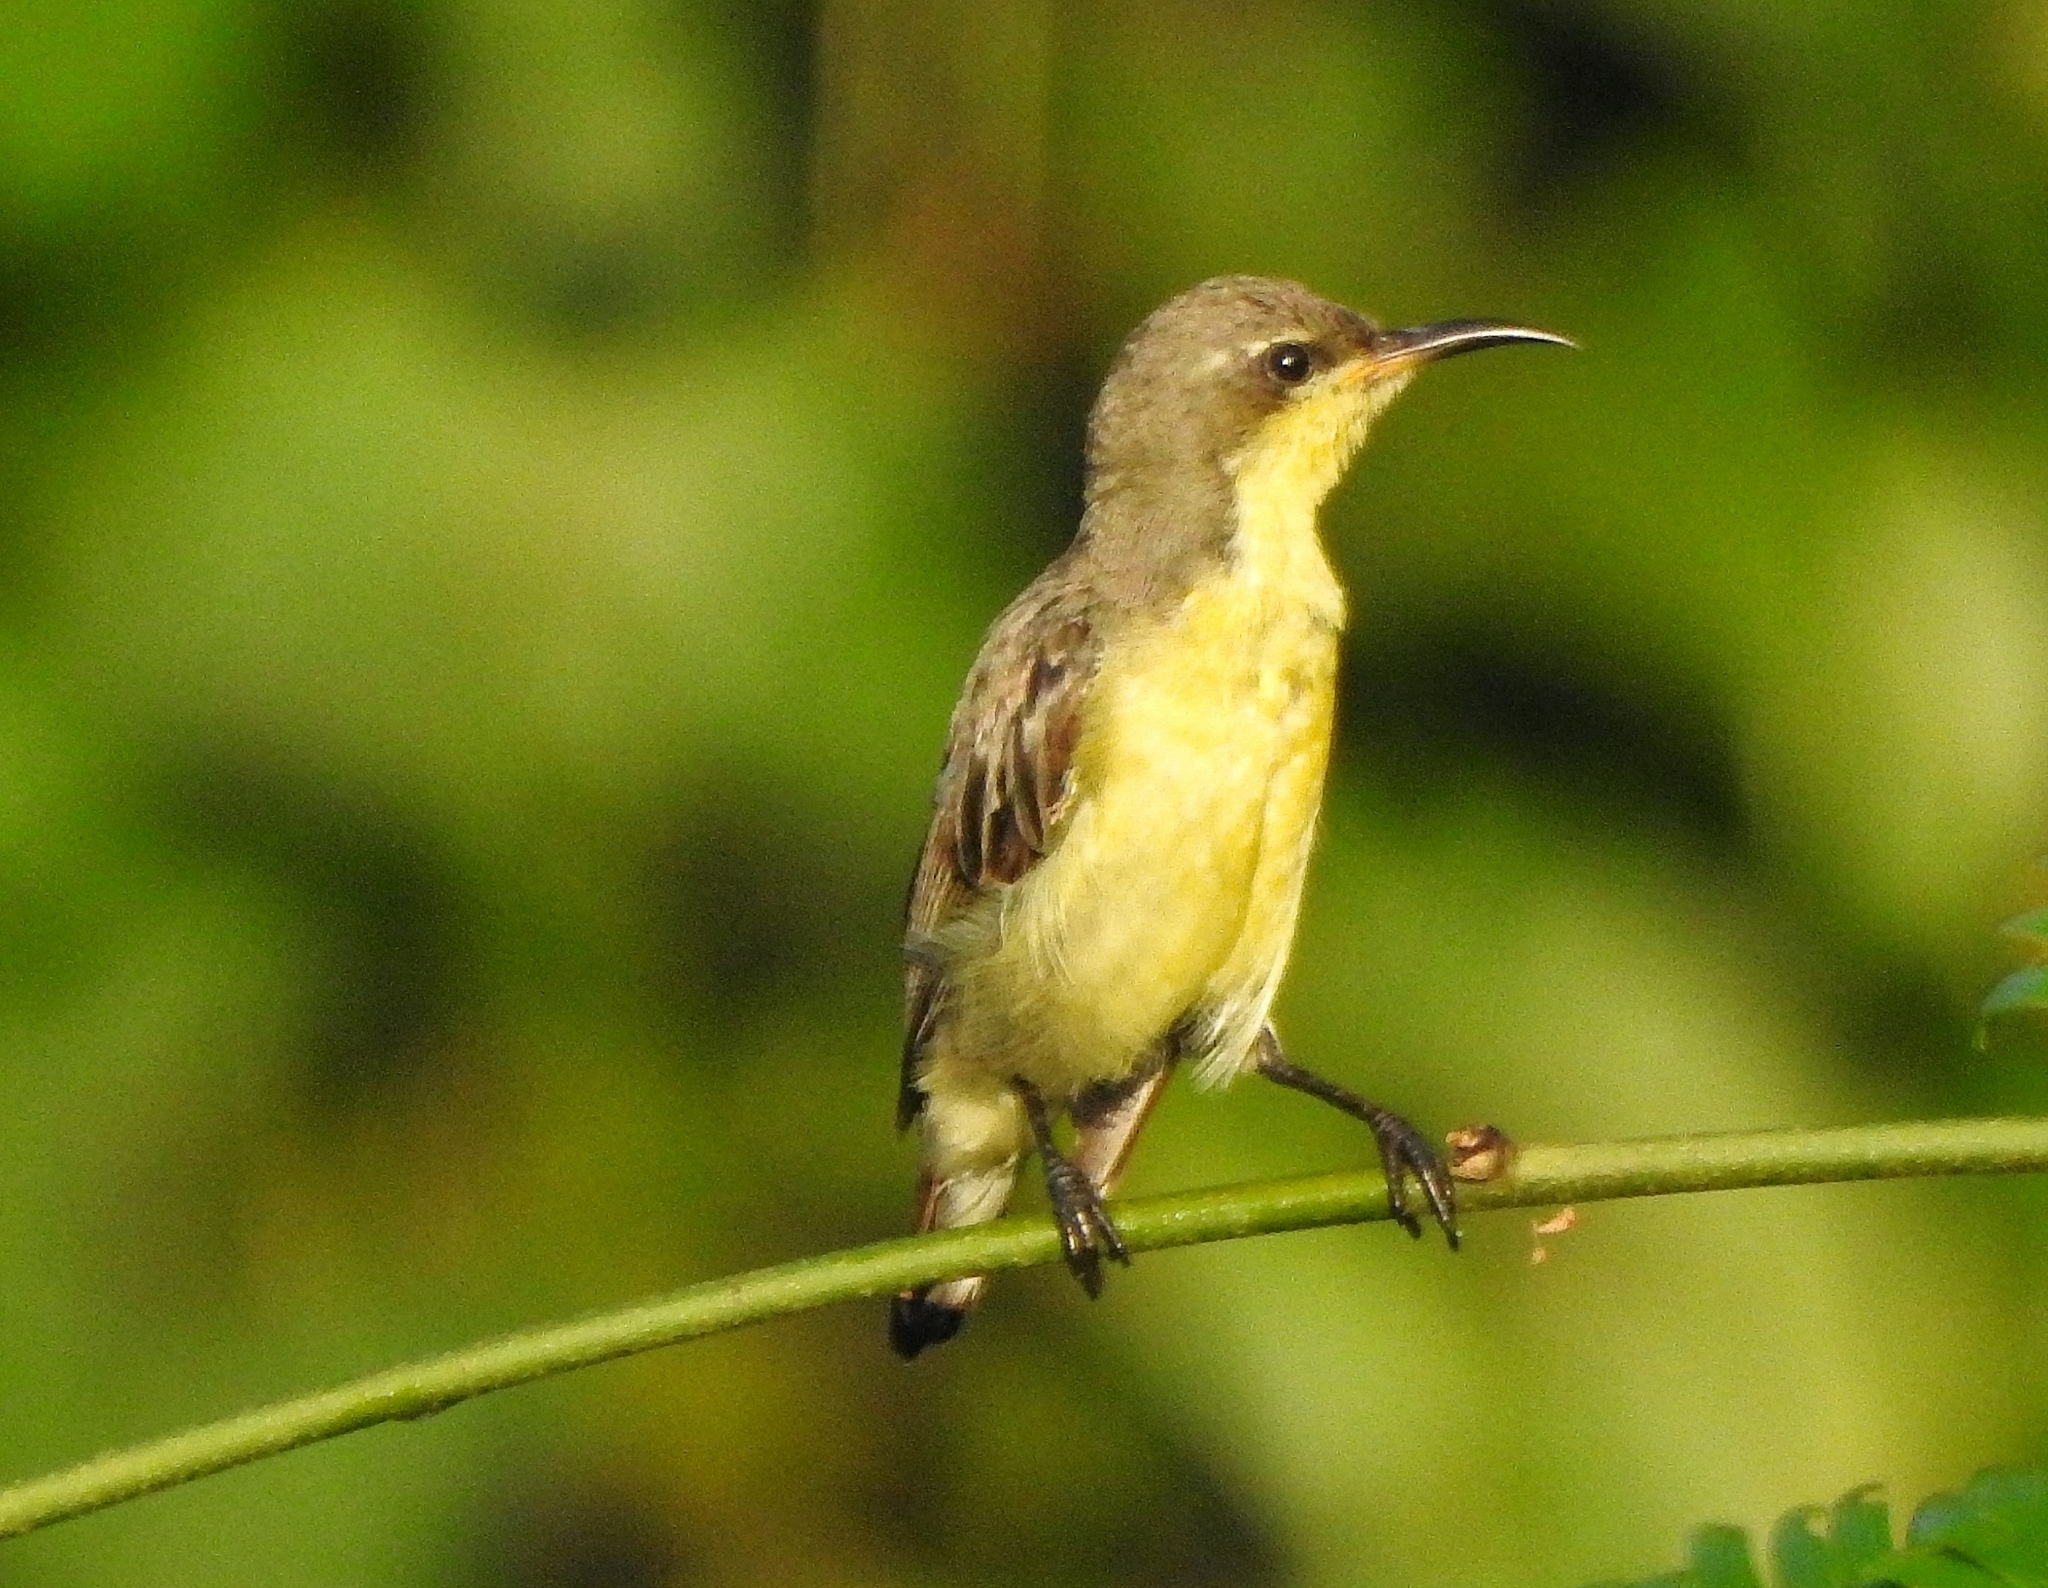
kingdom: Animalia
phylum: Chordata
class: Aves
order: Passeriformes
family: Nectariniidae
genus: Cinnyris
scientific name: Cinnyris asiaticus
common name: Purple sunbird
